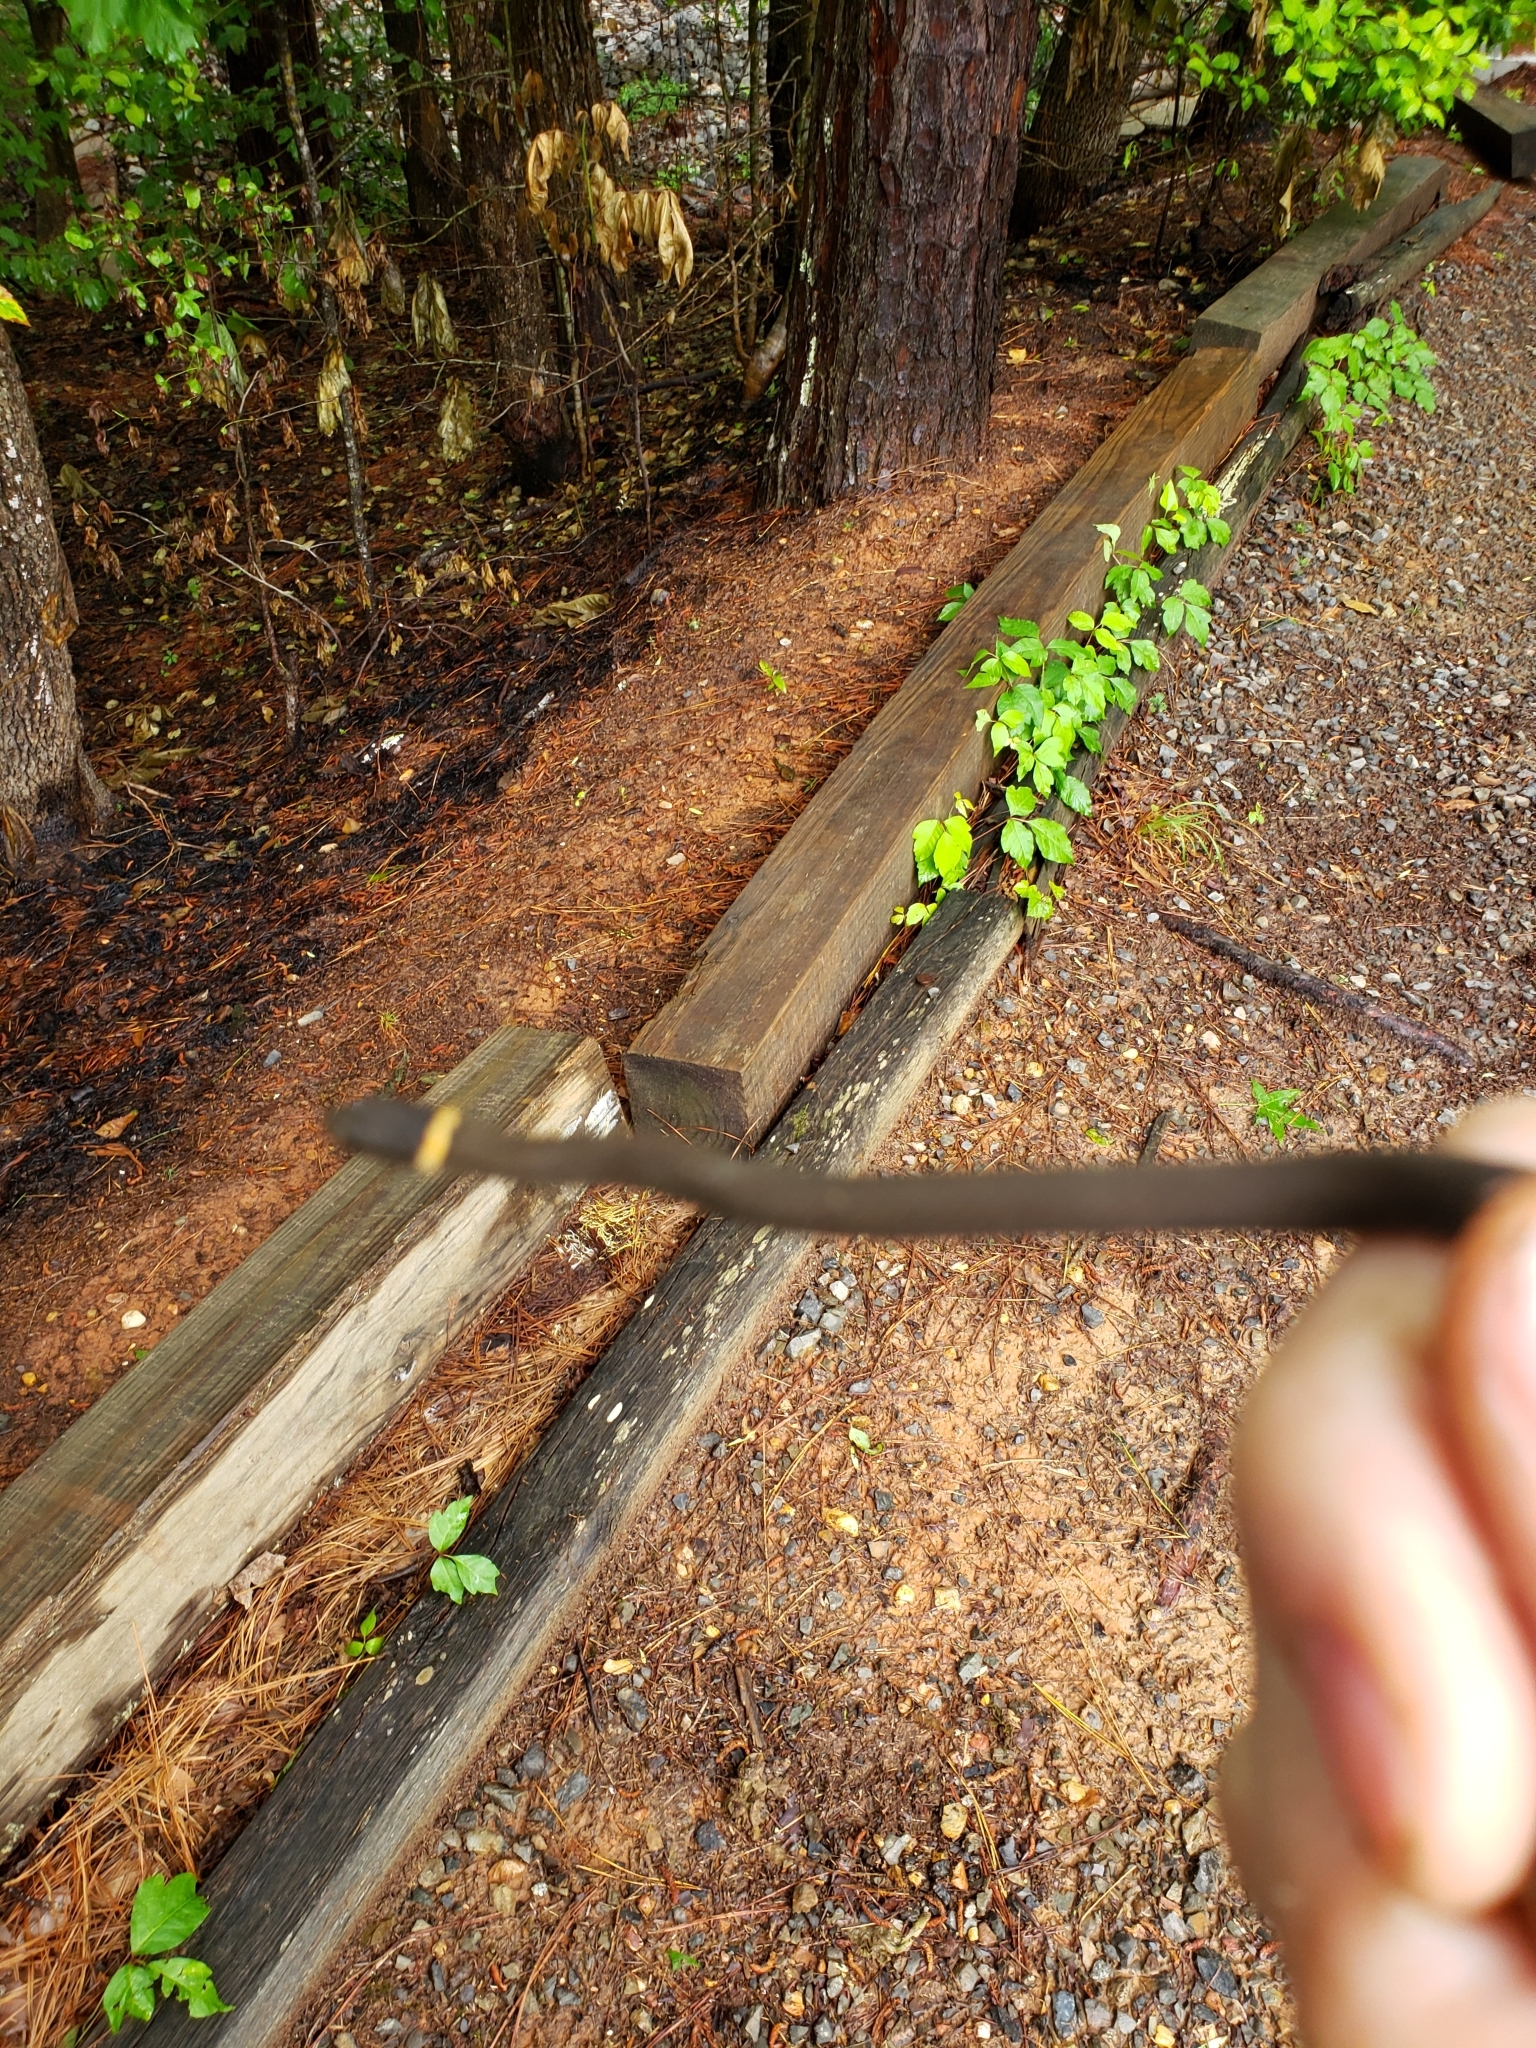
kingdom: Animalia
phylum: Chordata
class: Squamata
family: Colubridae
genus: Diadophis
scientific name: Diadophis punctatus
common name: Ringneck snake
